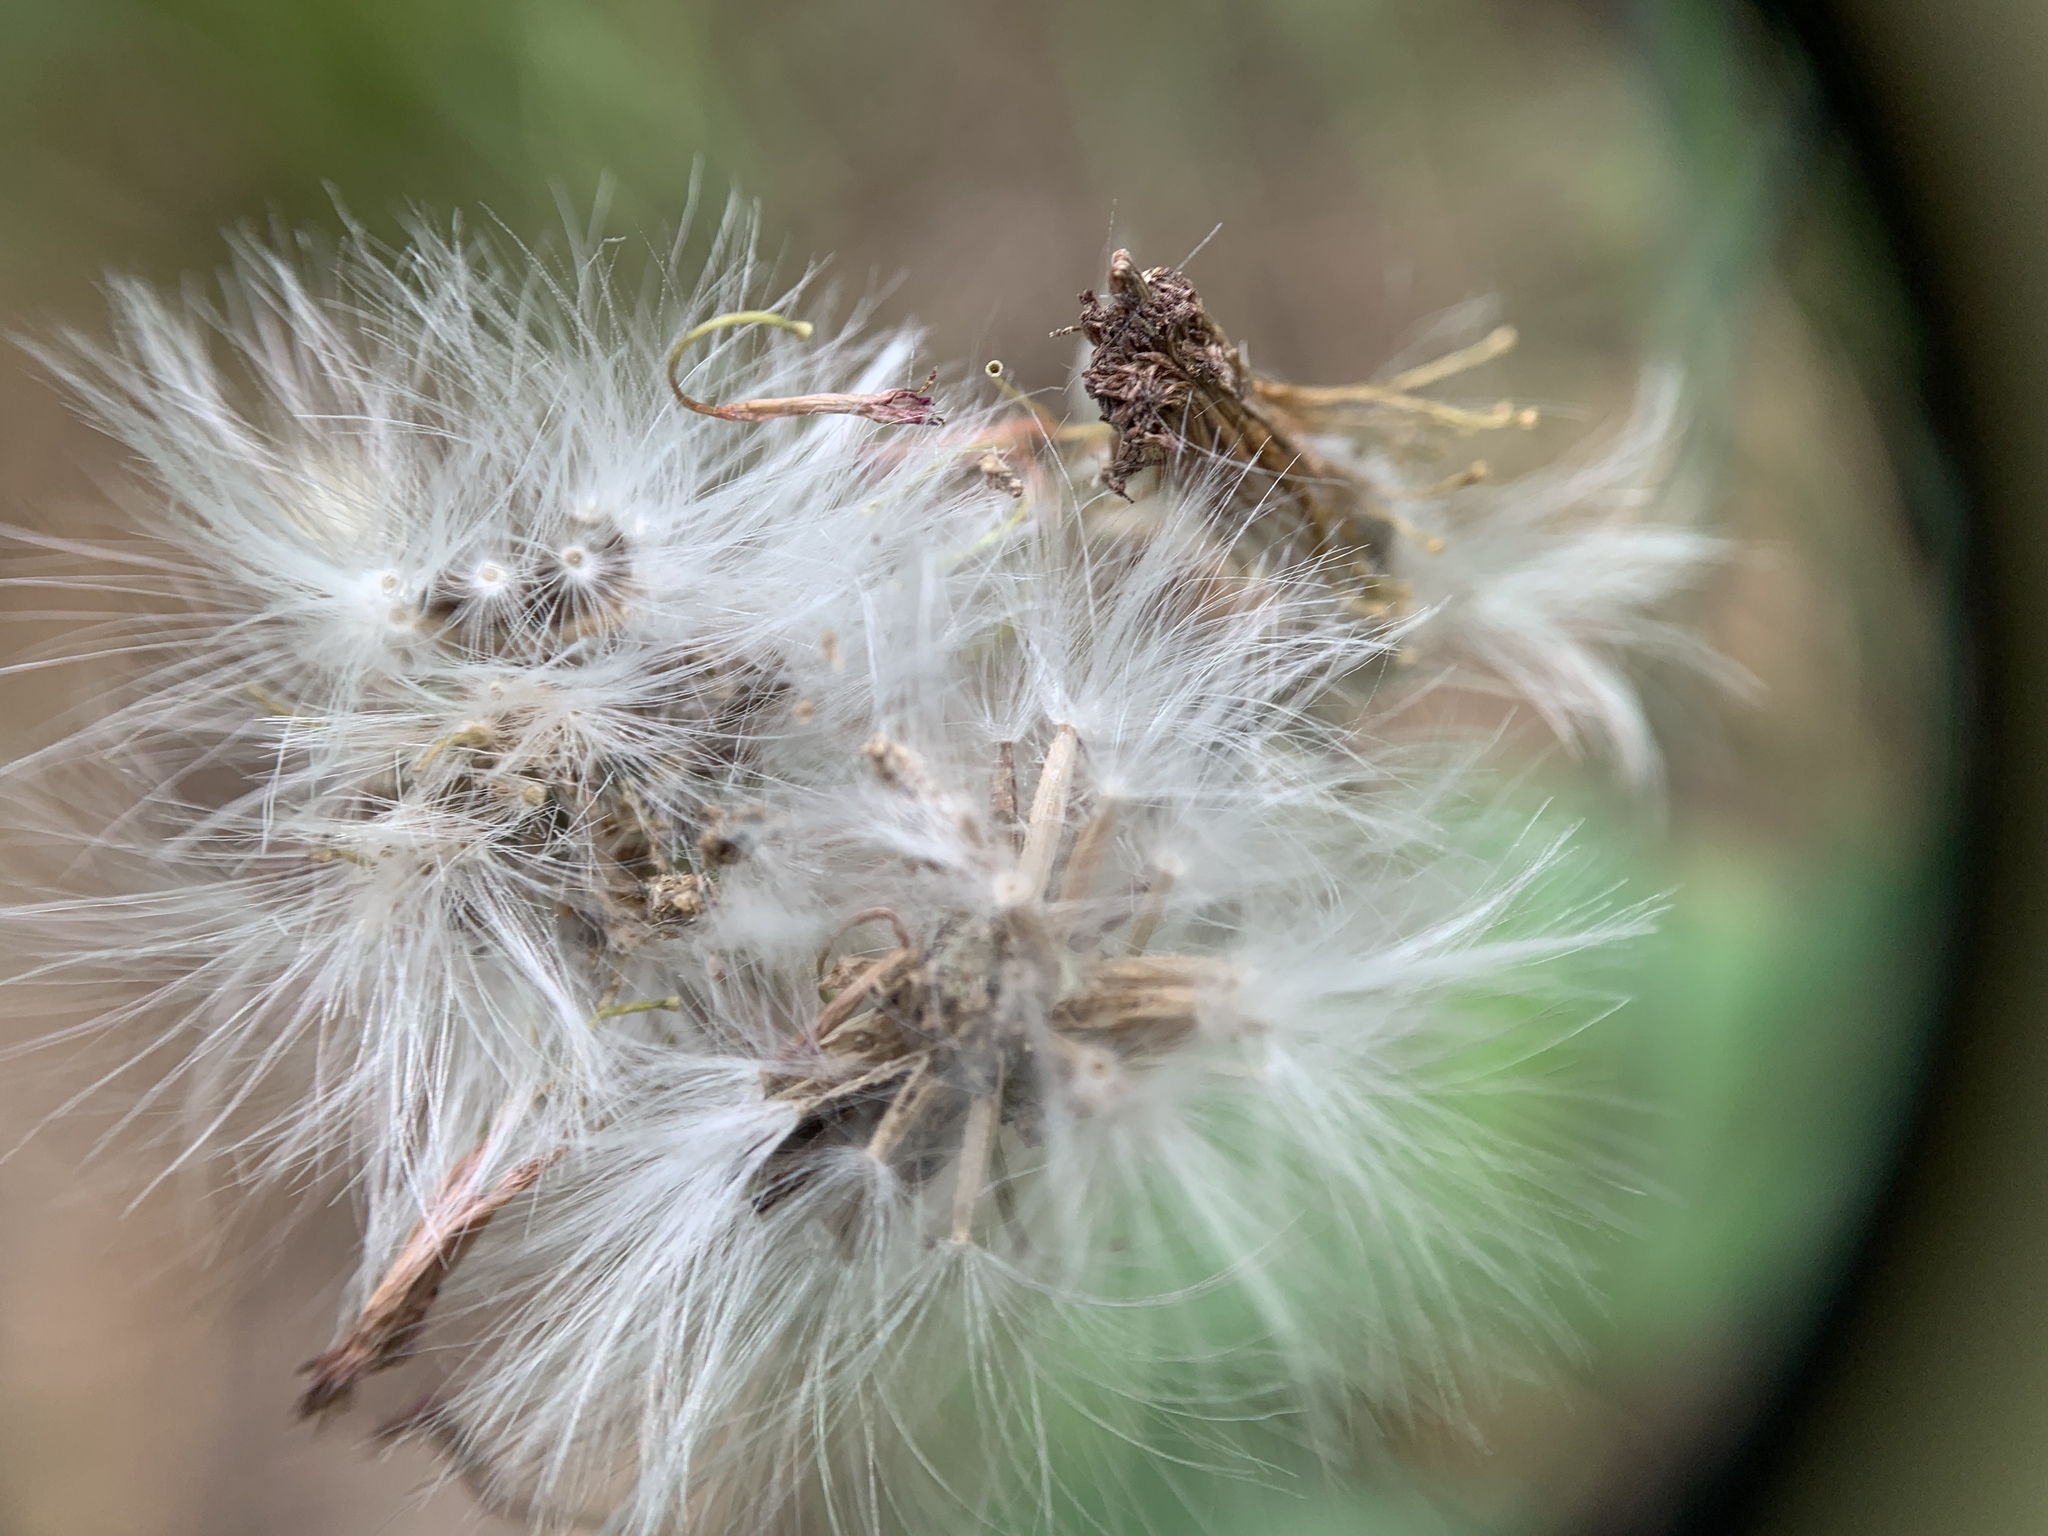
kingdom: Plantae
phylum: Tracheophyta
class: Magnoliopsida
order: Asterales
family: Asteraceae
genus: Emilia
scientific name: Emilia fosbergii
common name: Florida tasselflower
